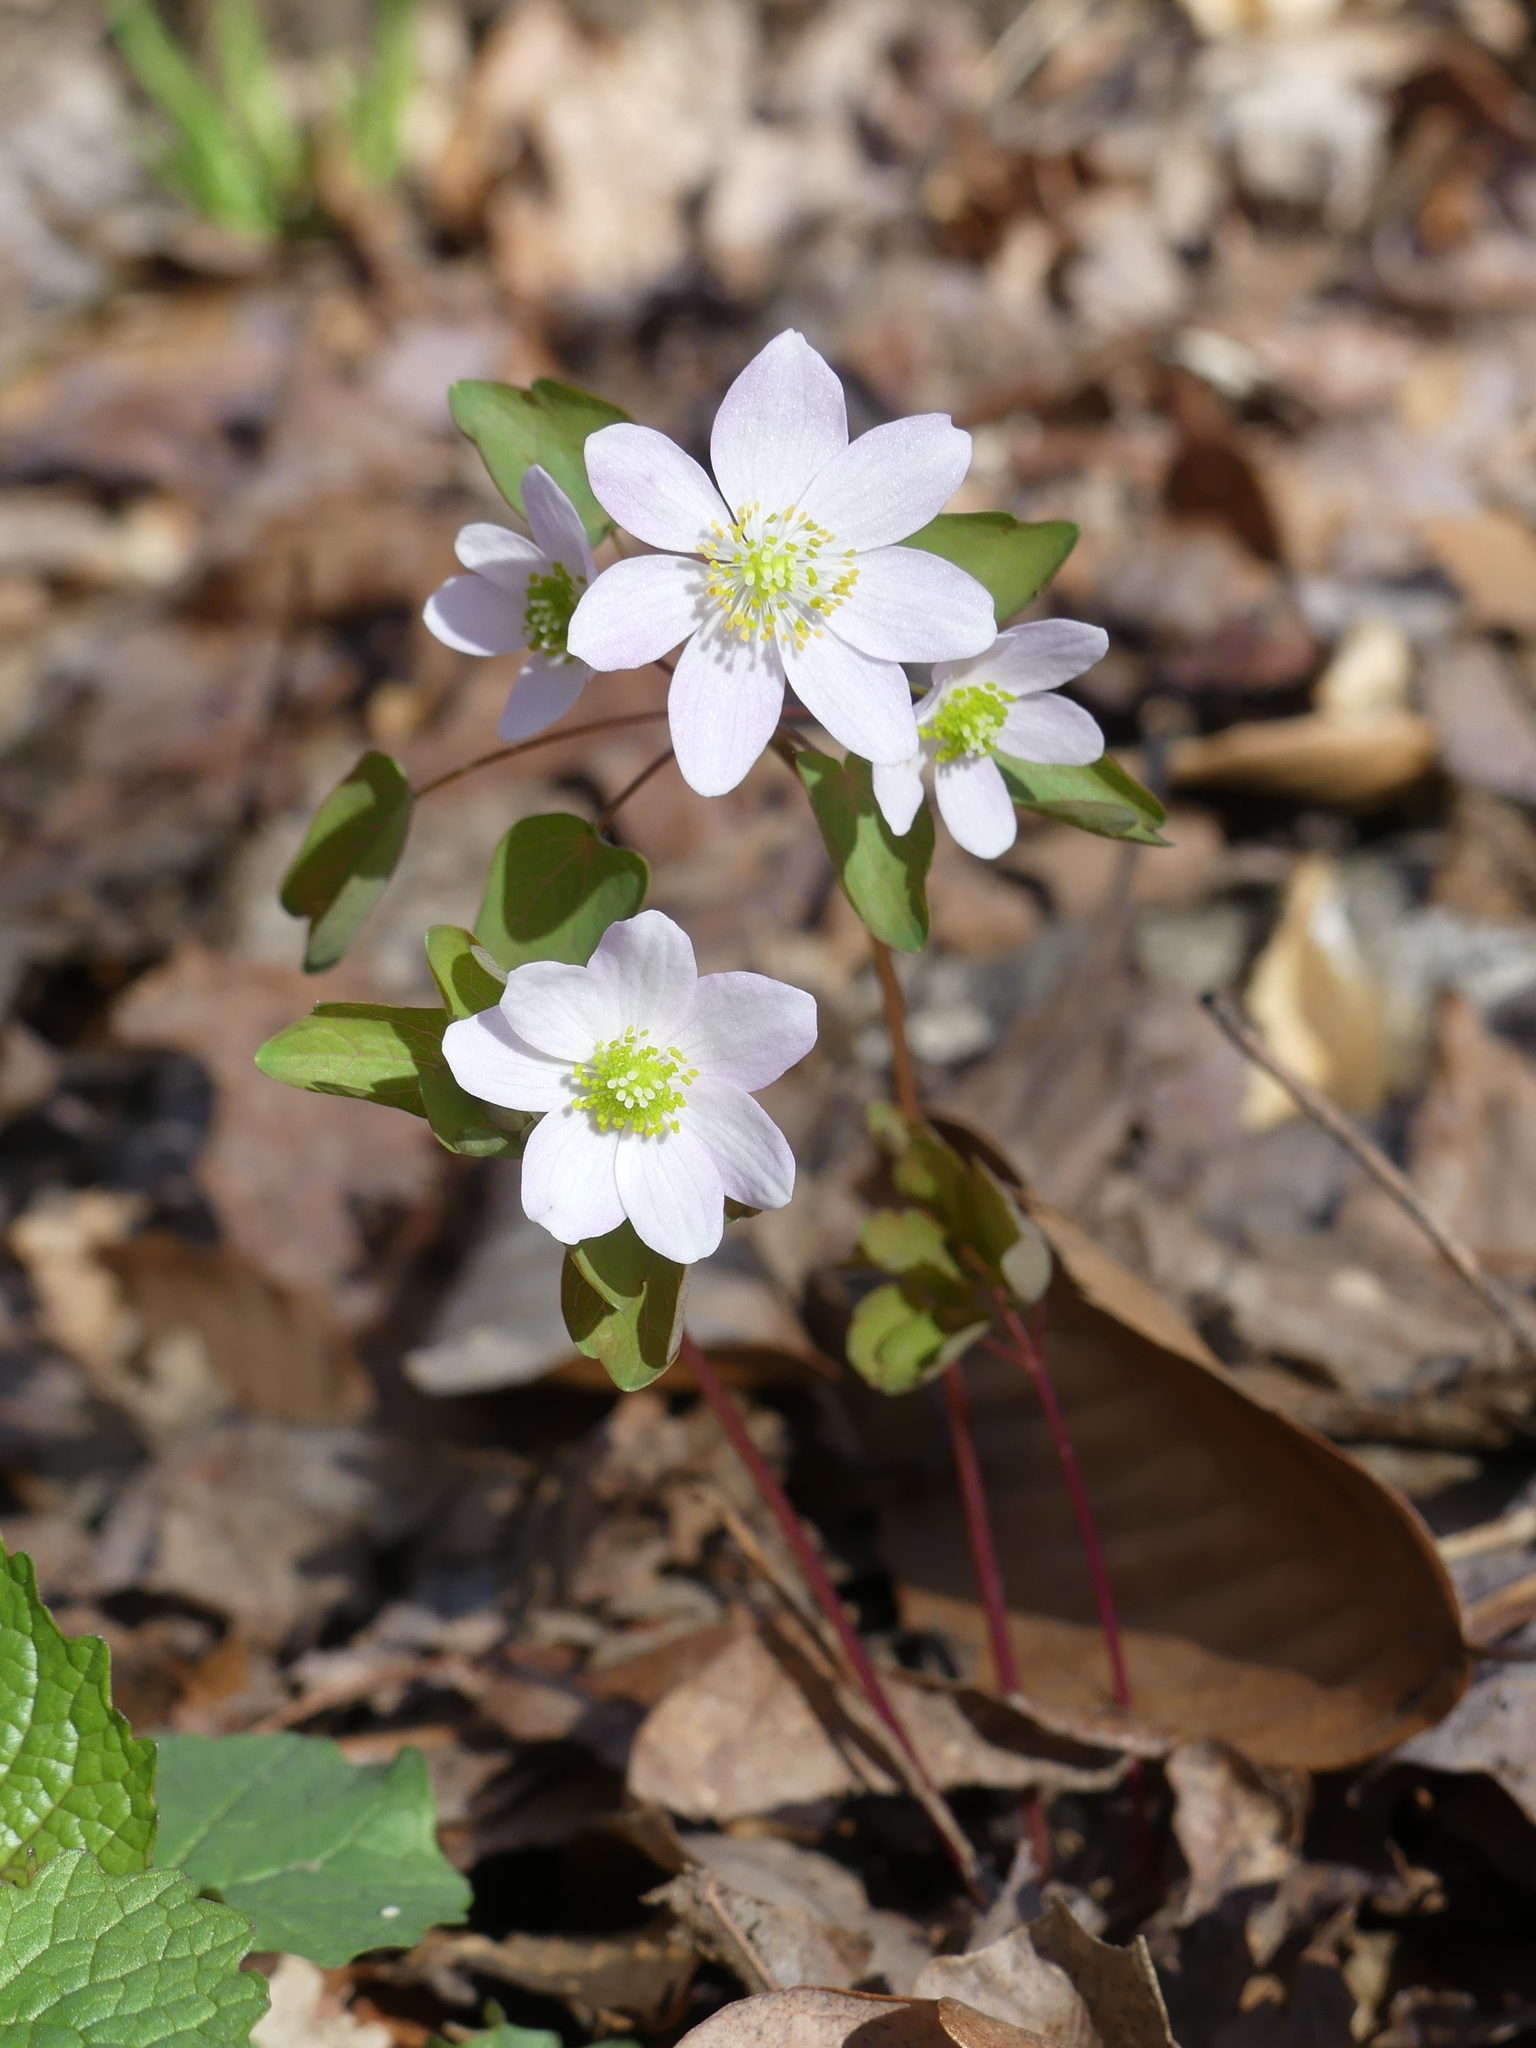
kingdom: Plantae
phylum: Tracheophyta
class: Magnoliopsida
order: Ranunculales
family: Ranunculaceae
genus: Thalictrum
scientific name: Thalictrum thalictroides
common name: Rue-anemone
